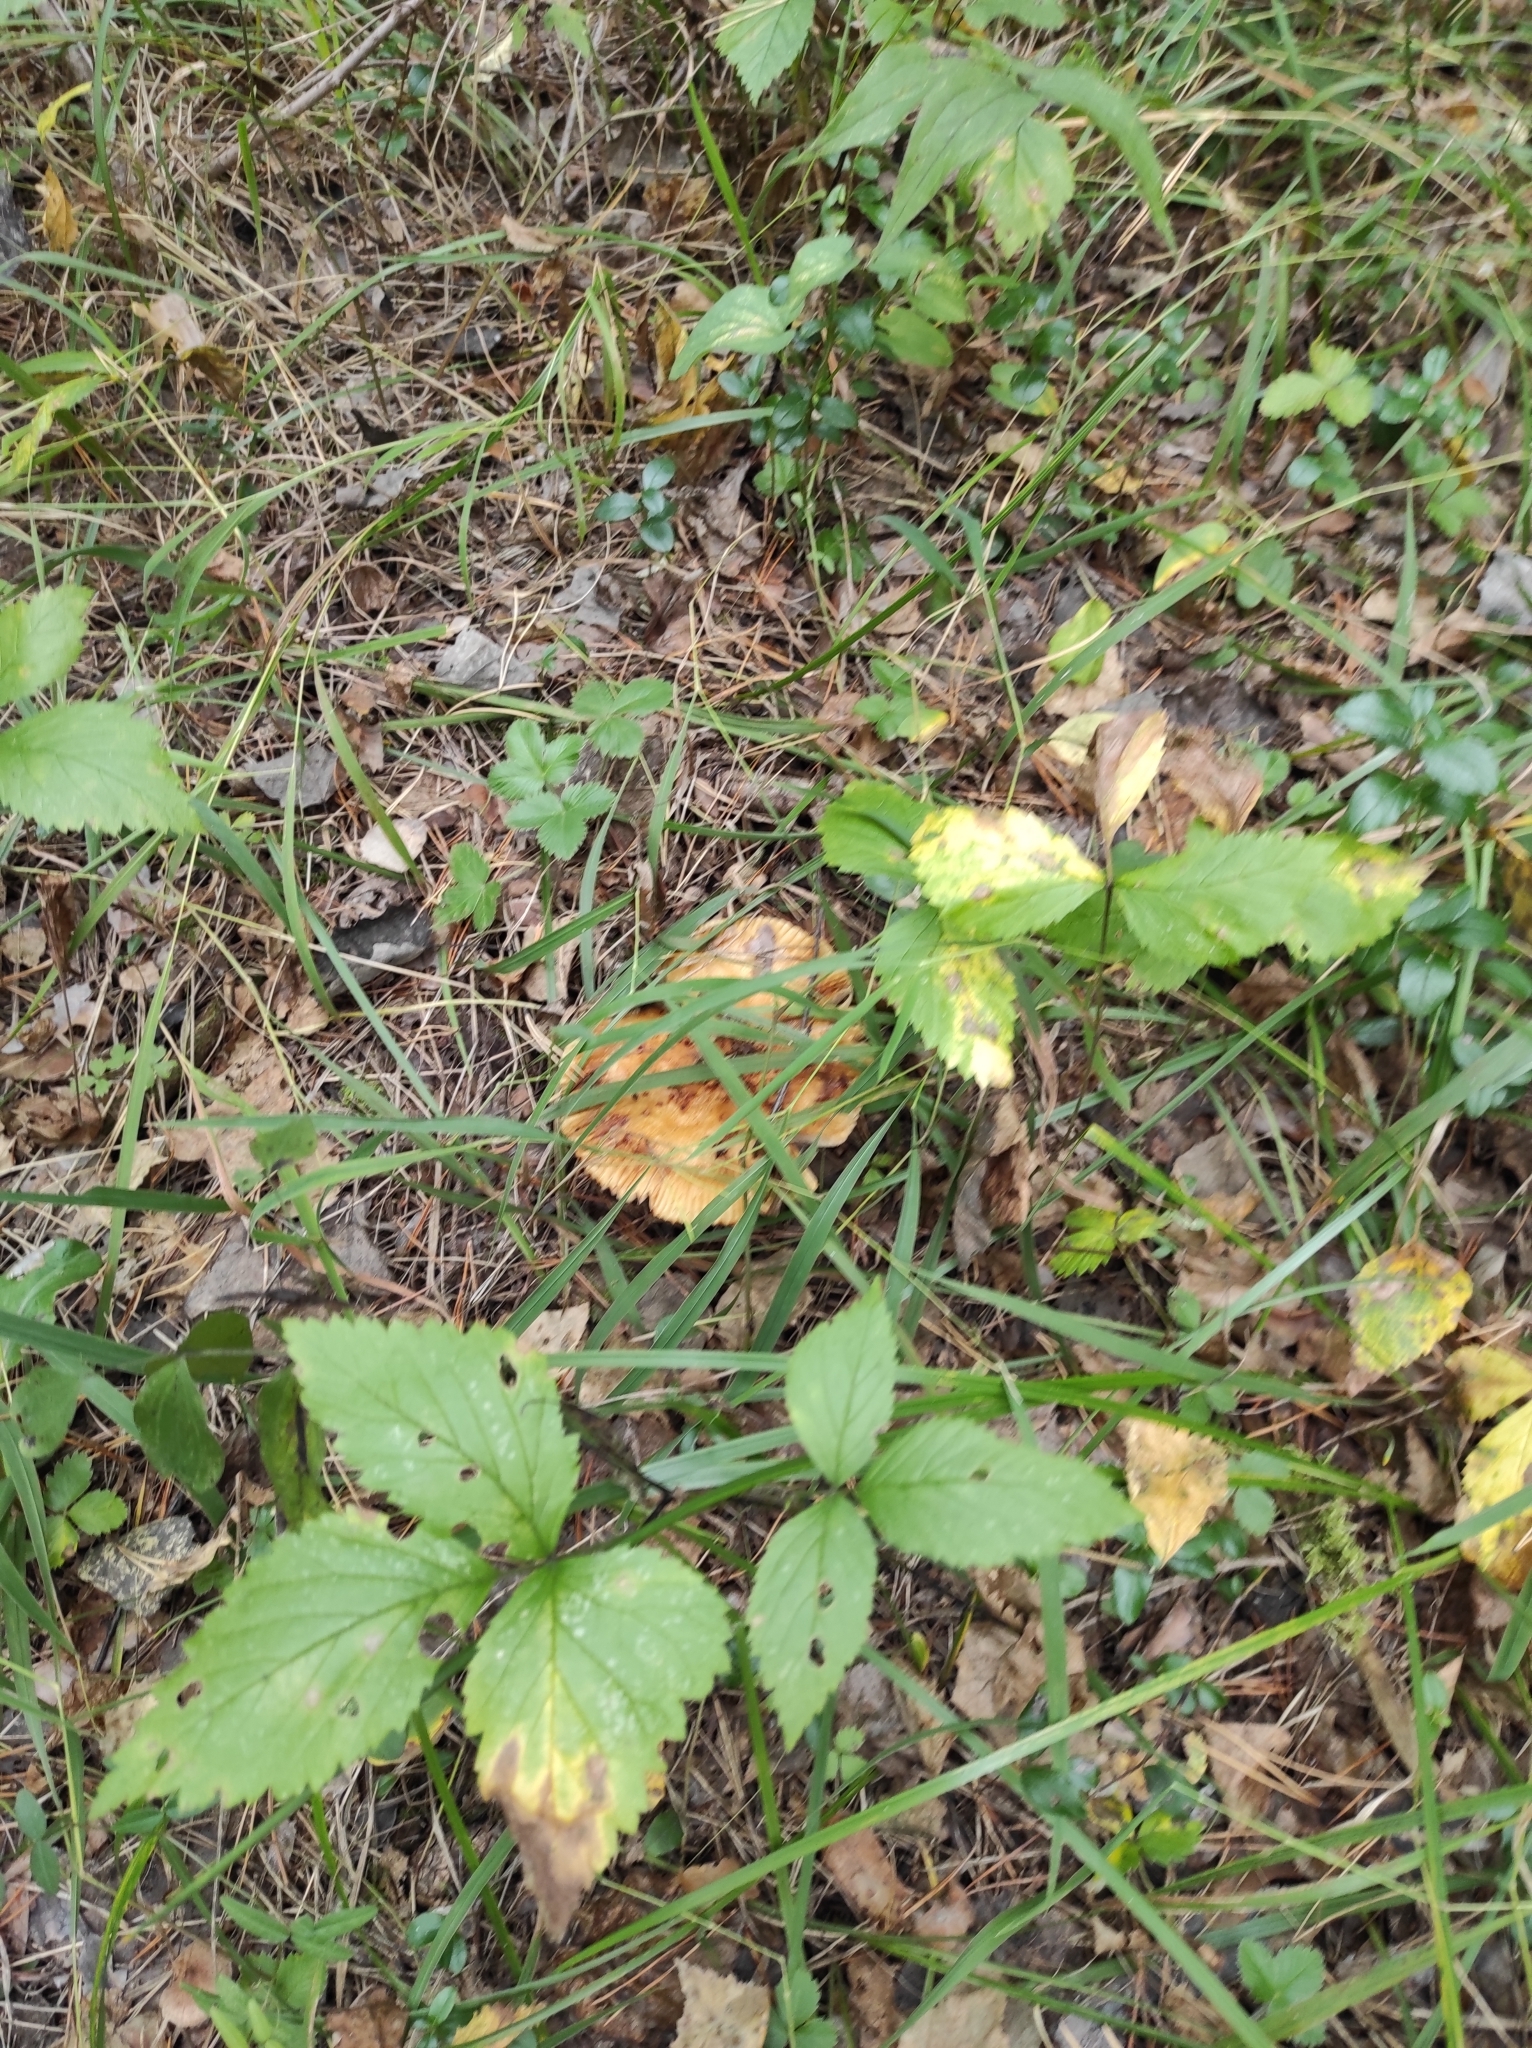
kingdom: Fungi
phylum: Basidiomycota
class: Agaricomycetes
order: Russulales
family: Russulaceae
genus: Russula
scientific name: Russula foetens
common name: Foetid russula
